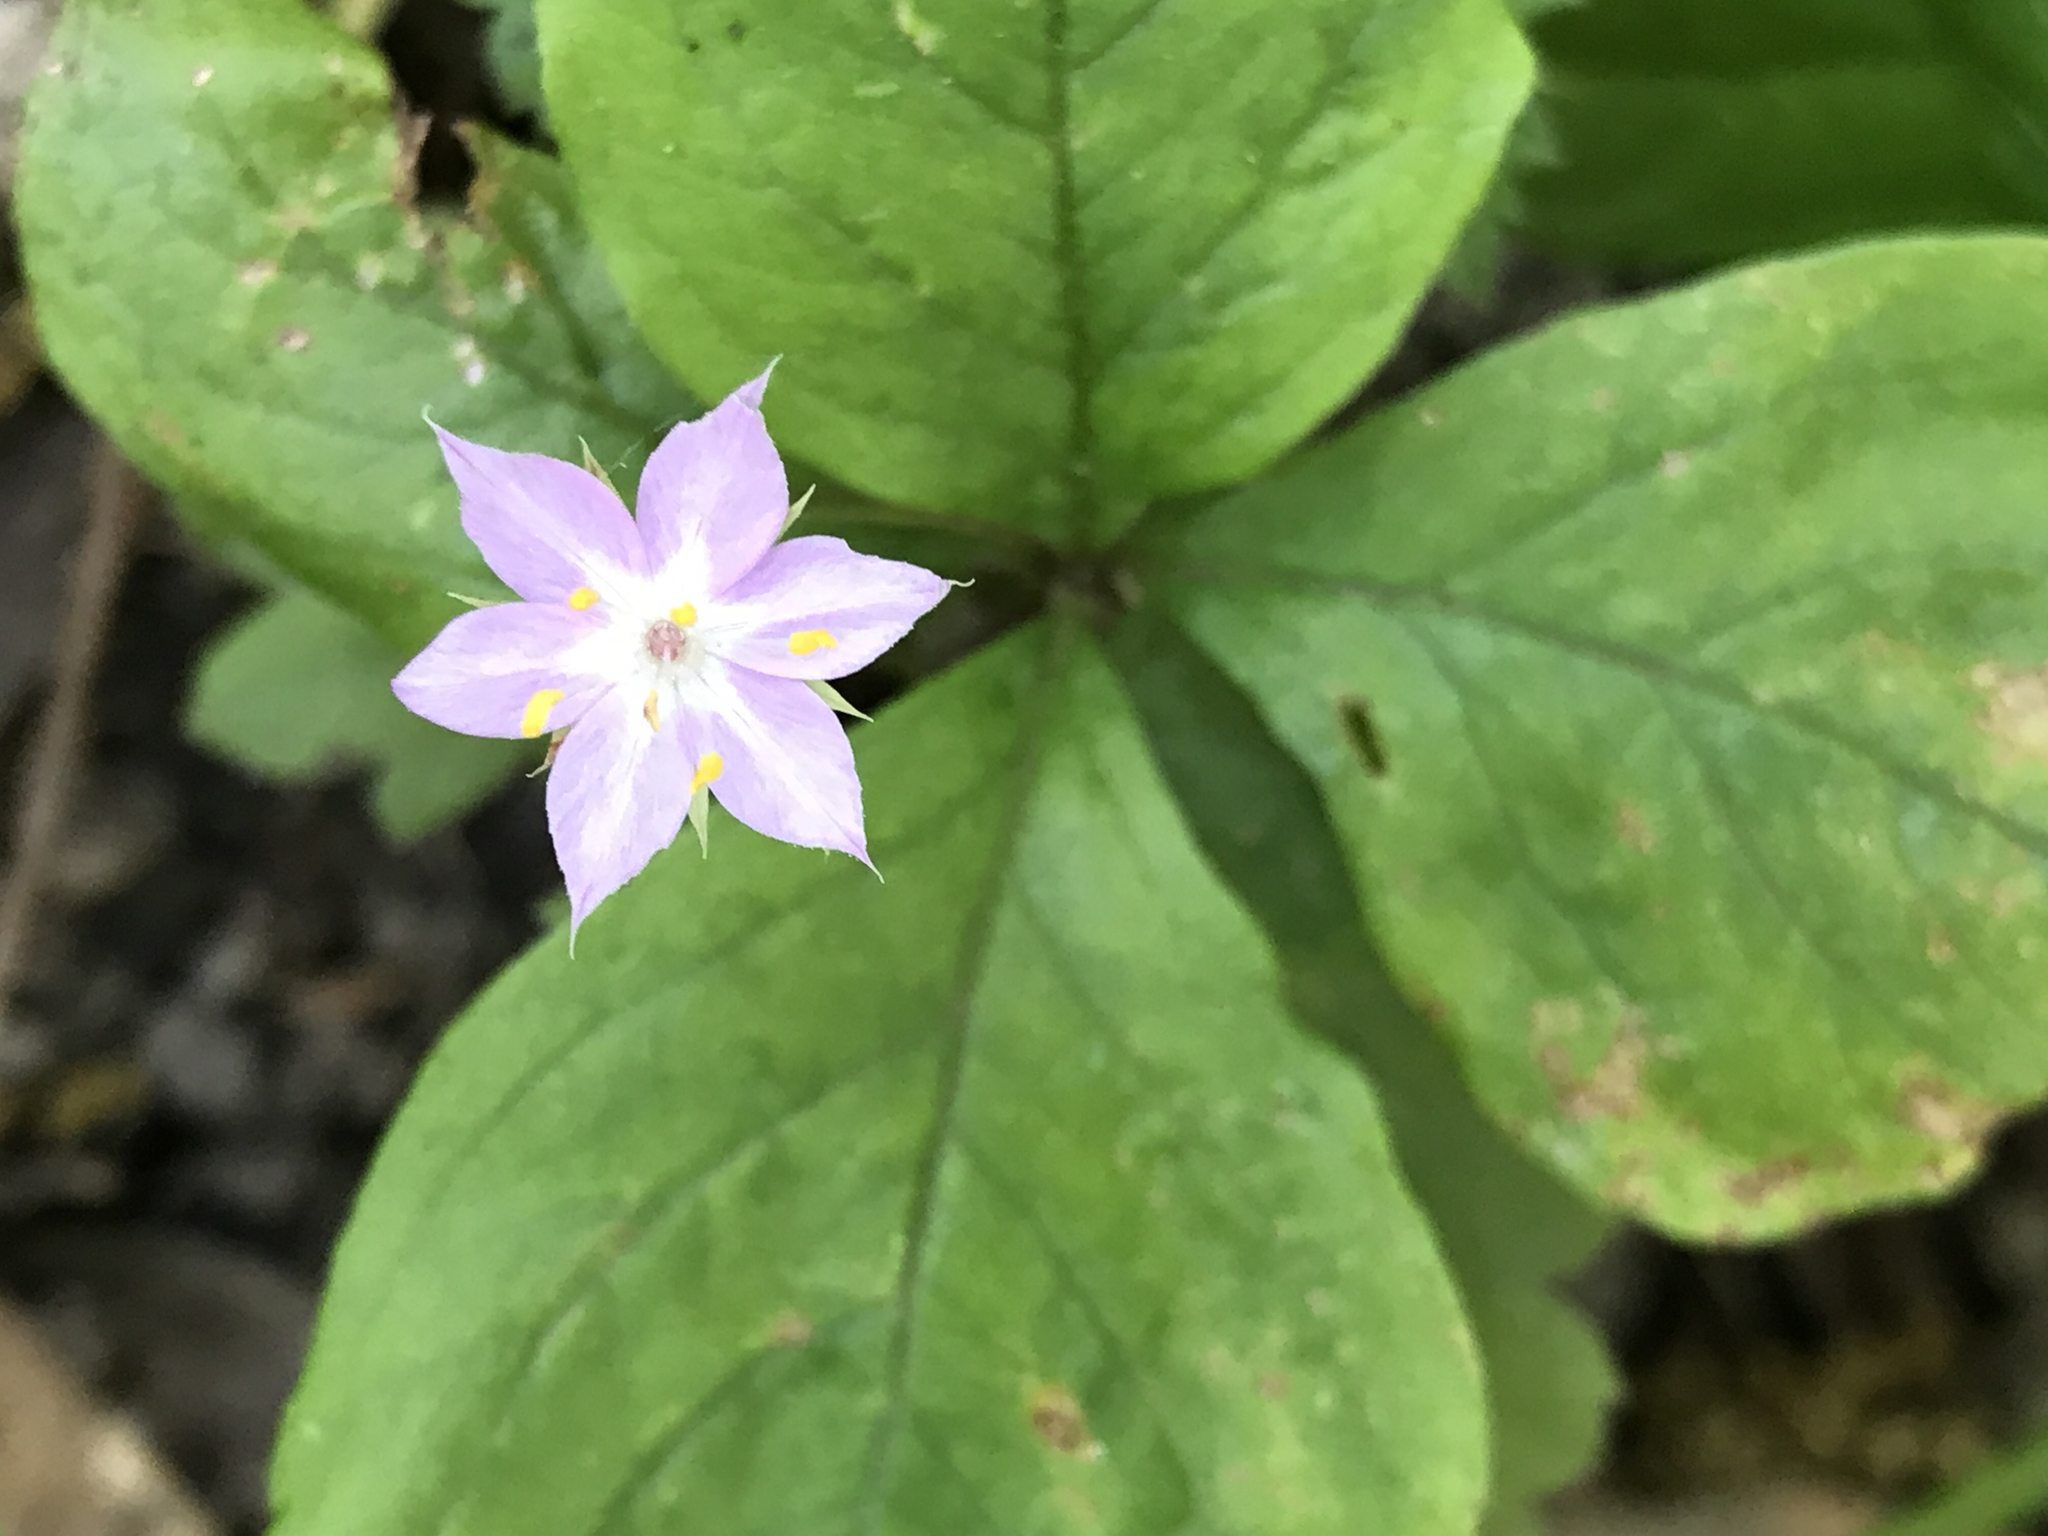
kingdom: Plantae
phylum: Tracheophyta
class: Magnoliopsida
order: Ericales
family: Primulaceae
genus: Lysimachia
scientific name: Lysimachia latifolia
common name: Pacific starflower
